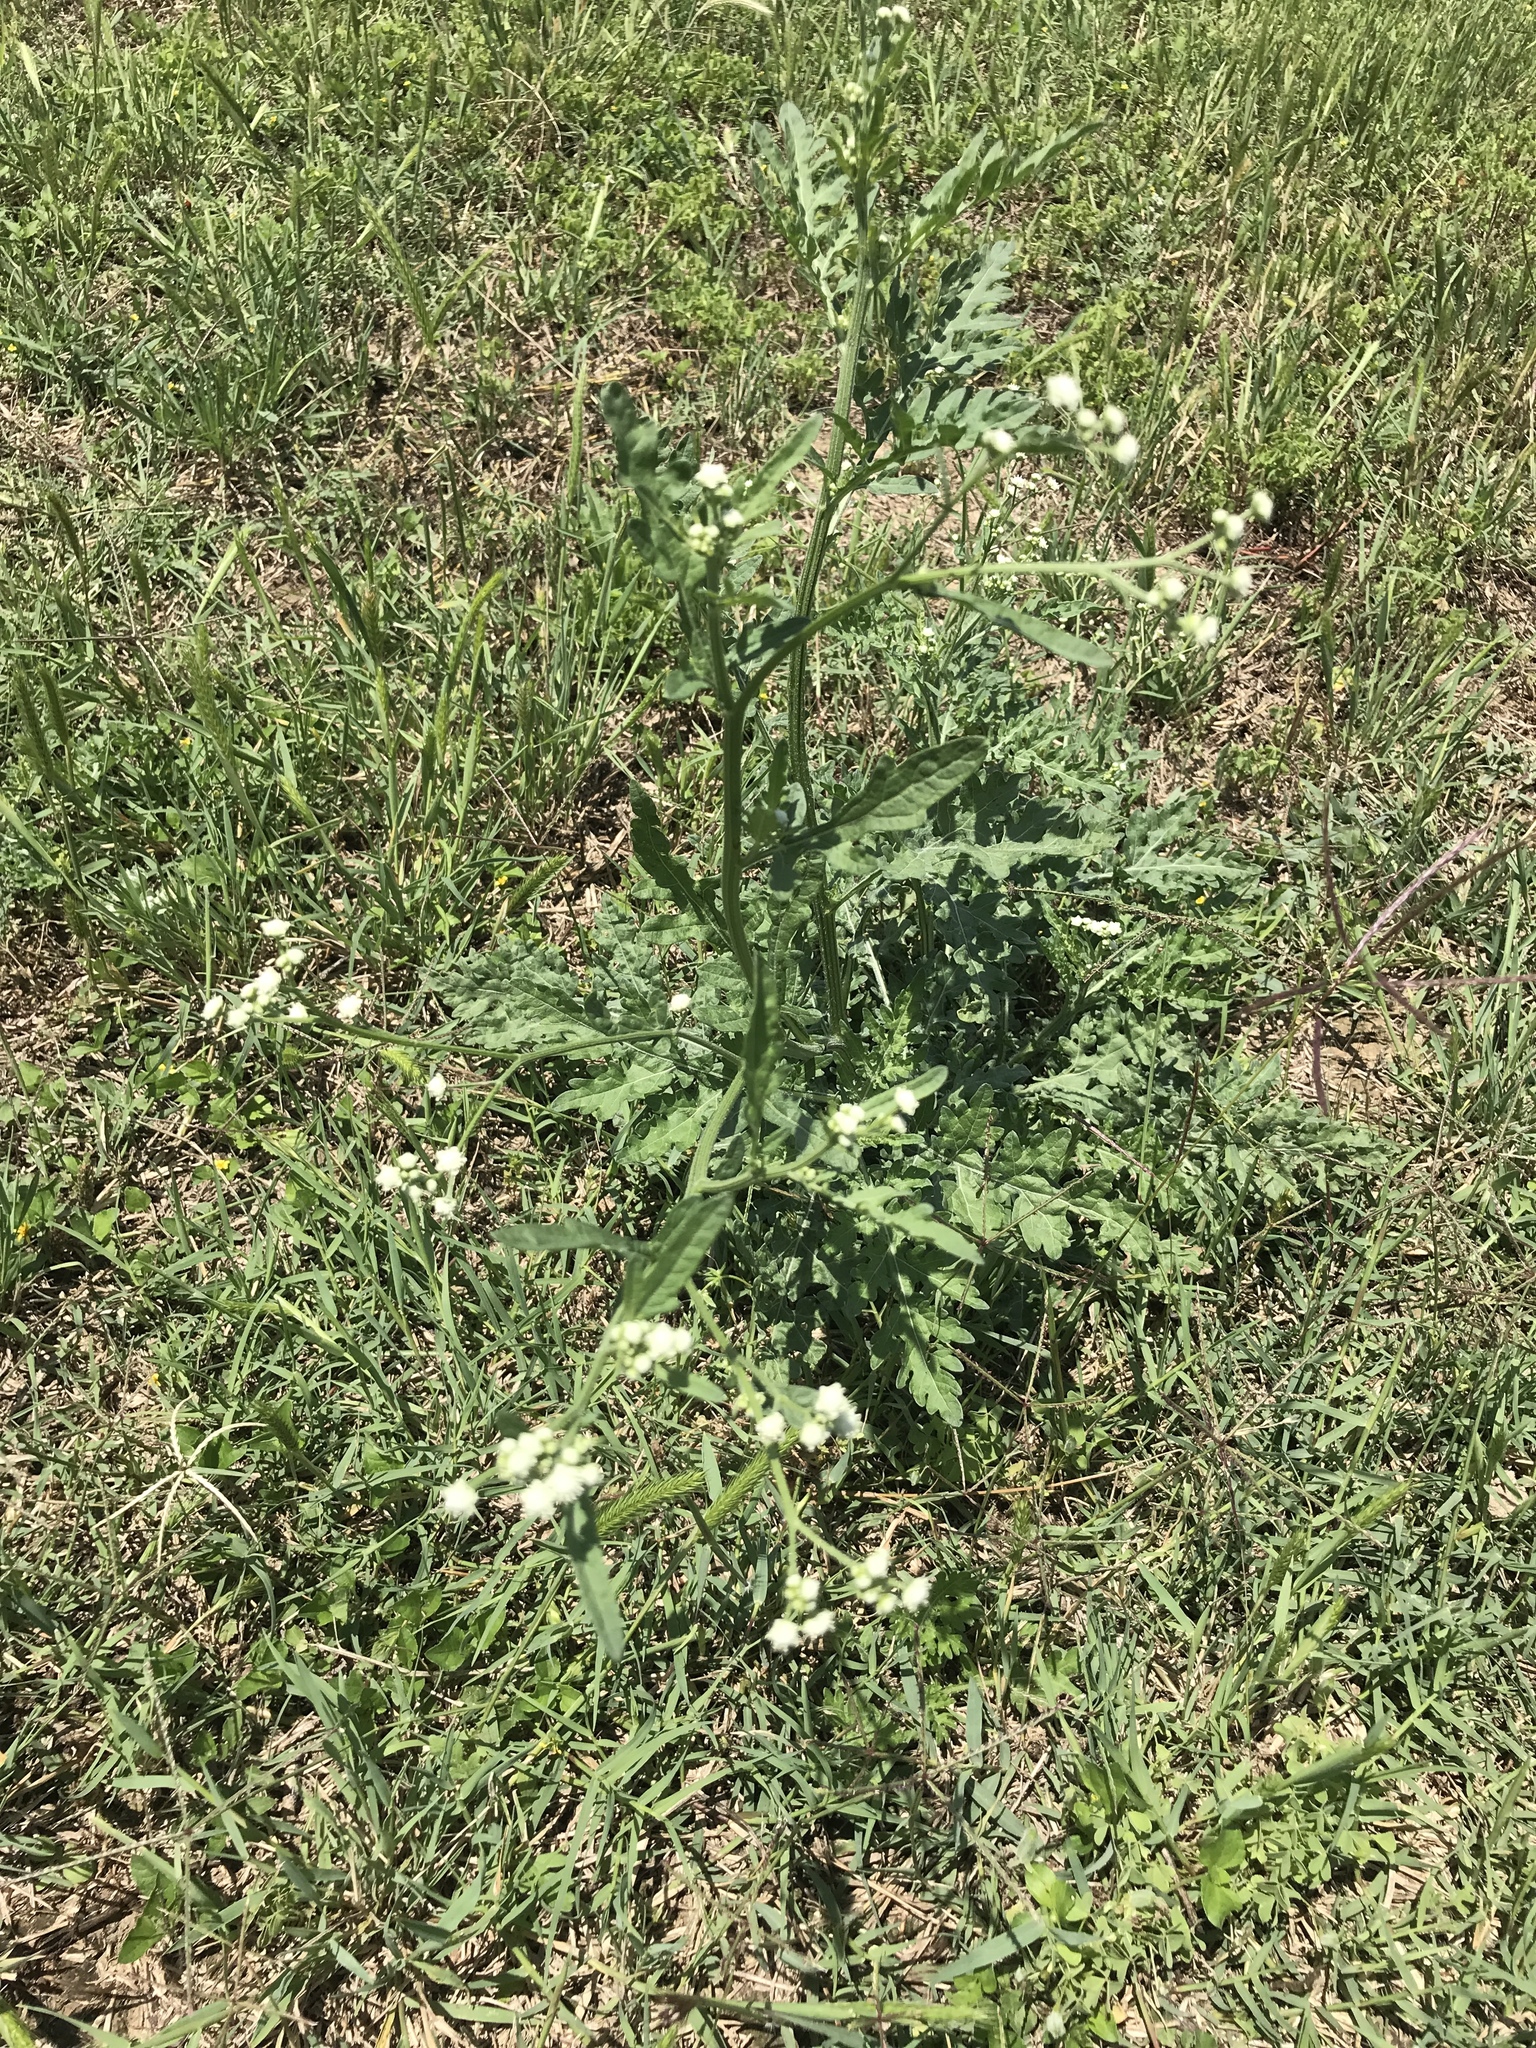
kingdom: Plantae
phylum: Tracheophyta
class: Magnoliopsida
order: Asterales
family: Asteraceae
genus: Parthenium
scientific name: Parthenium hysterophorus
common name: Santa maria feverfew
